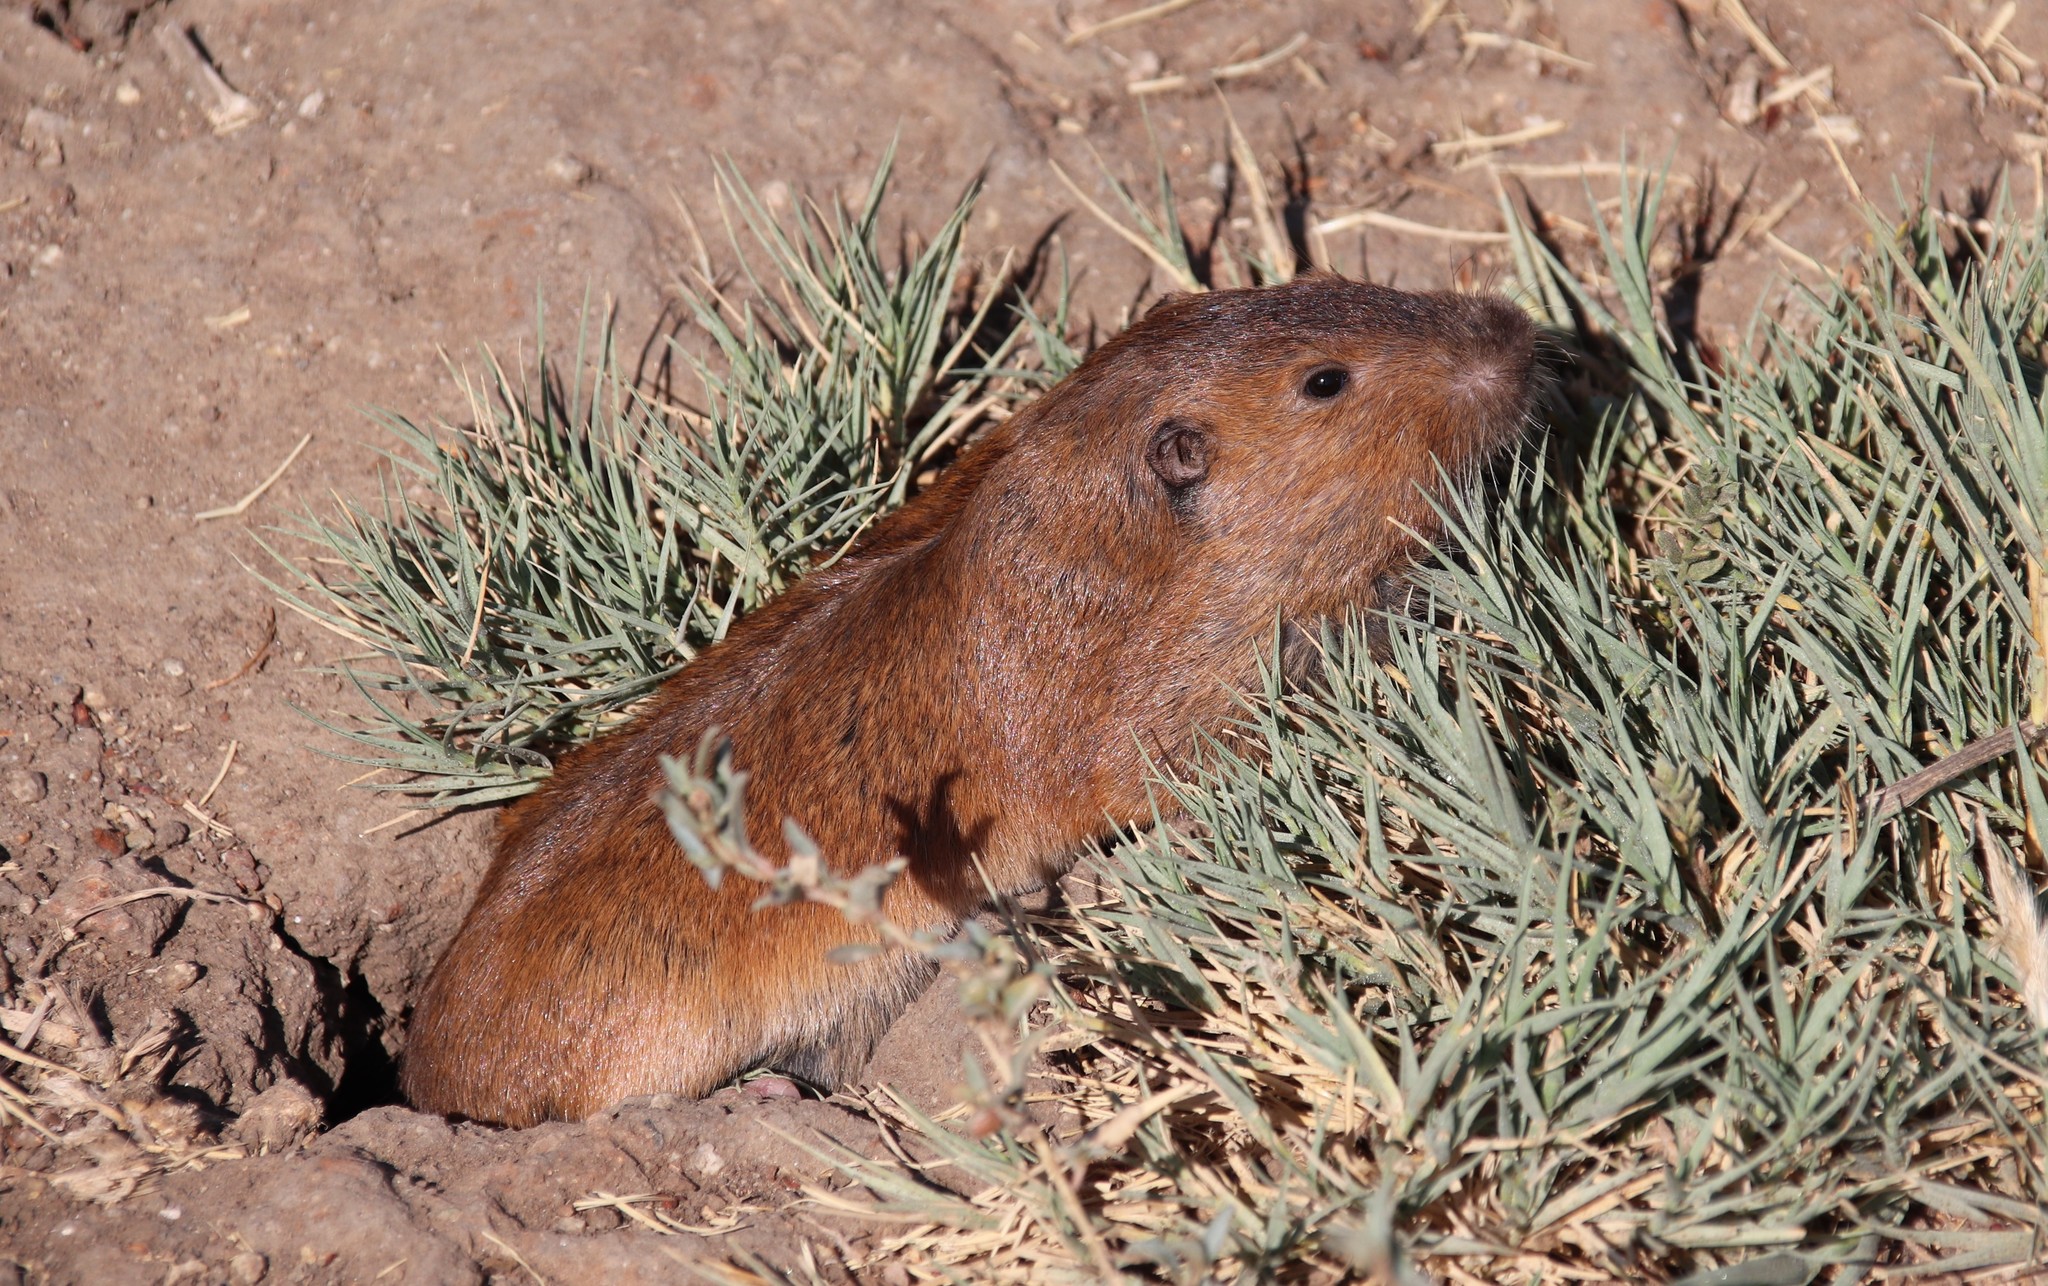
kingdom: Animalia
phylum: Chordata
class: Mammalia
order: Rodentia
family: Geomyidae
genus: Thomomys
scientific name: Thomomys bottae
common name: Botta's pocket gopher
